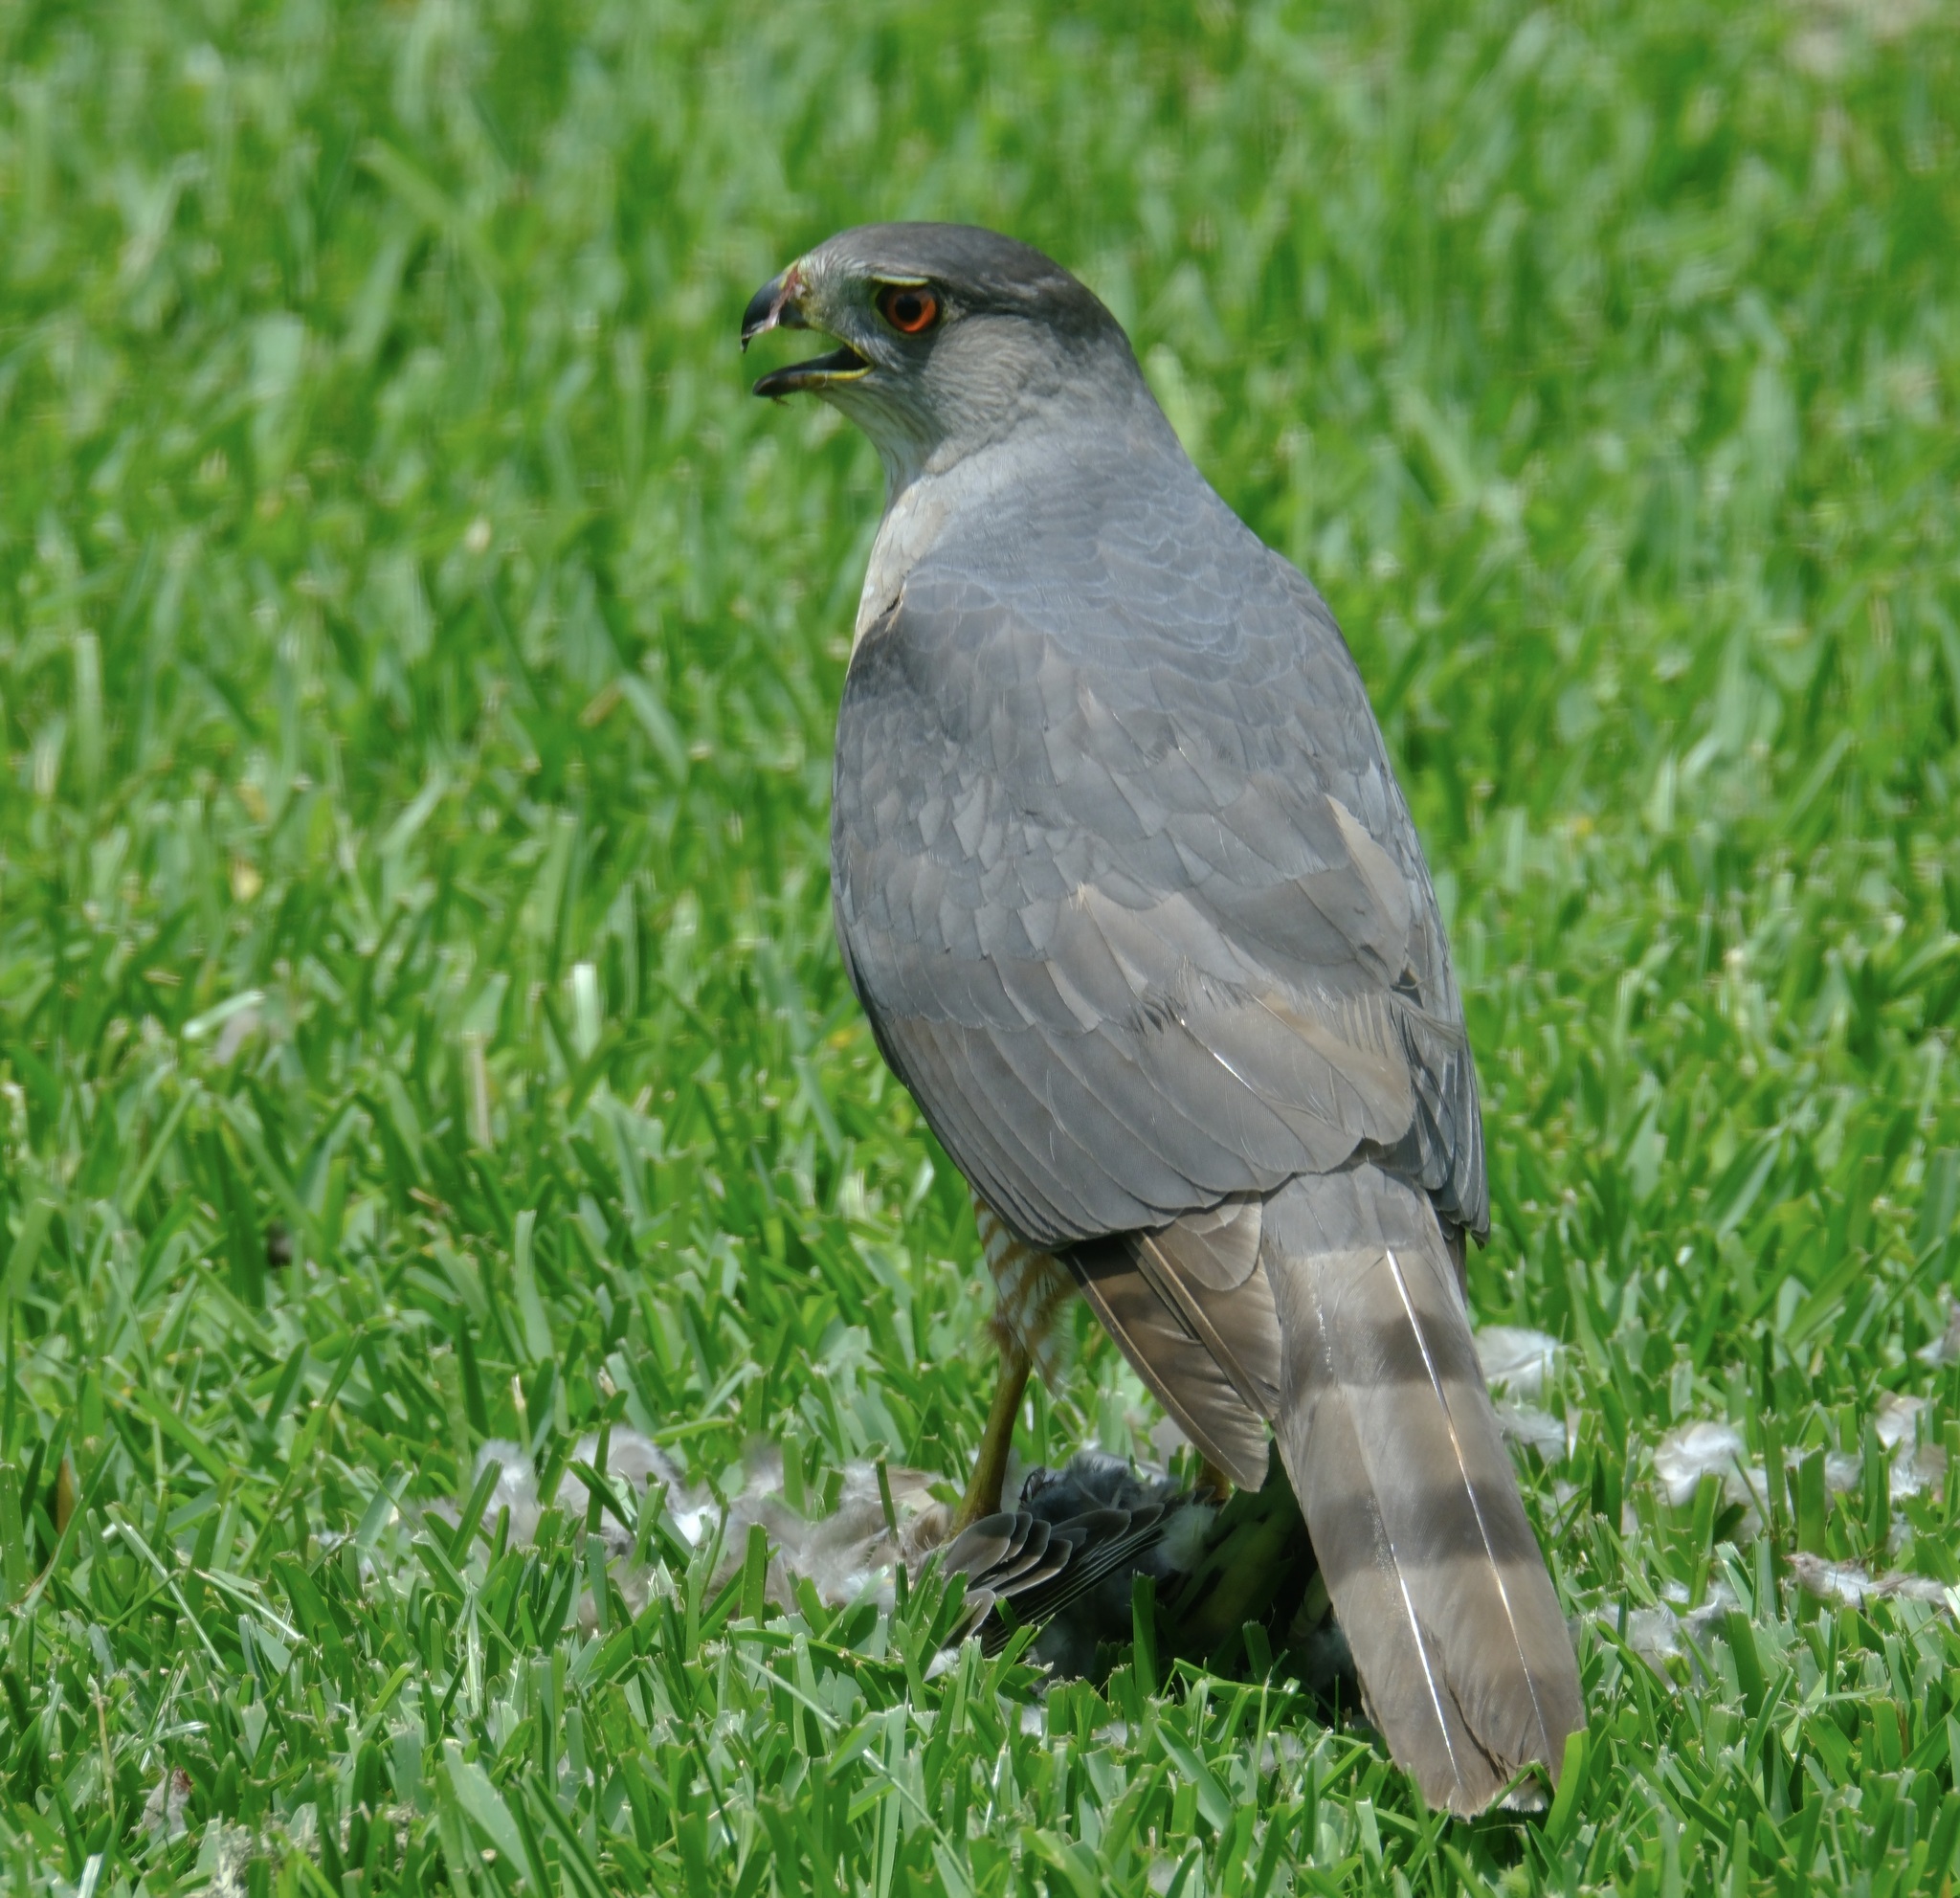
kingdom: Animalia
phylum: Chordata
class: Aves
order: Accipitriformes
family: Accipitridae
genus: Accipiter
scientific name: Accipiter cooperii
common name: Cooper's hawk
